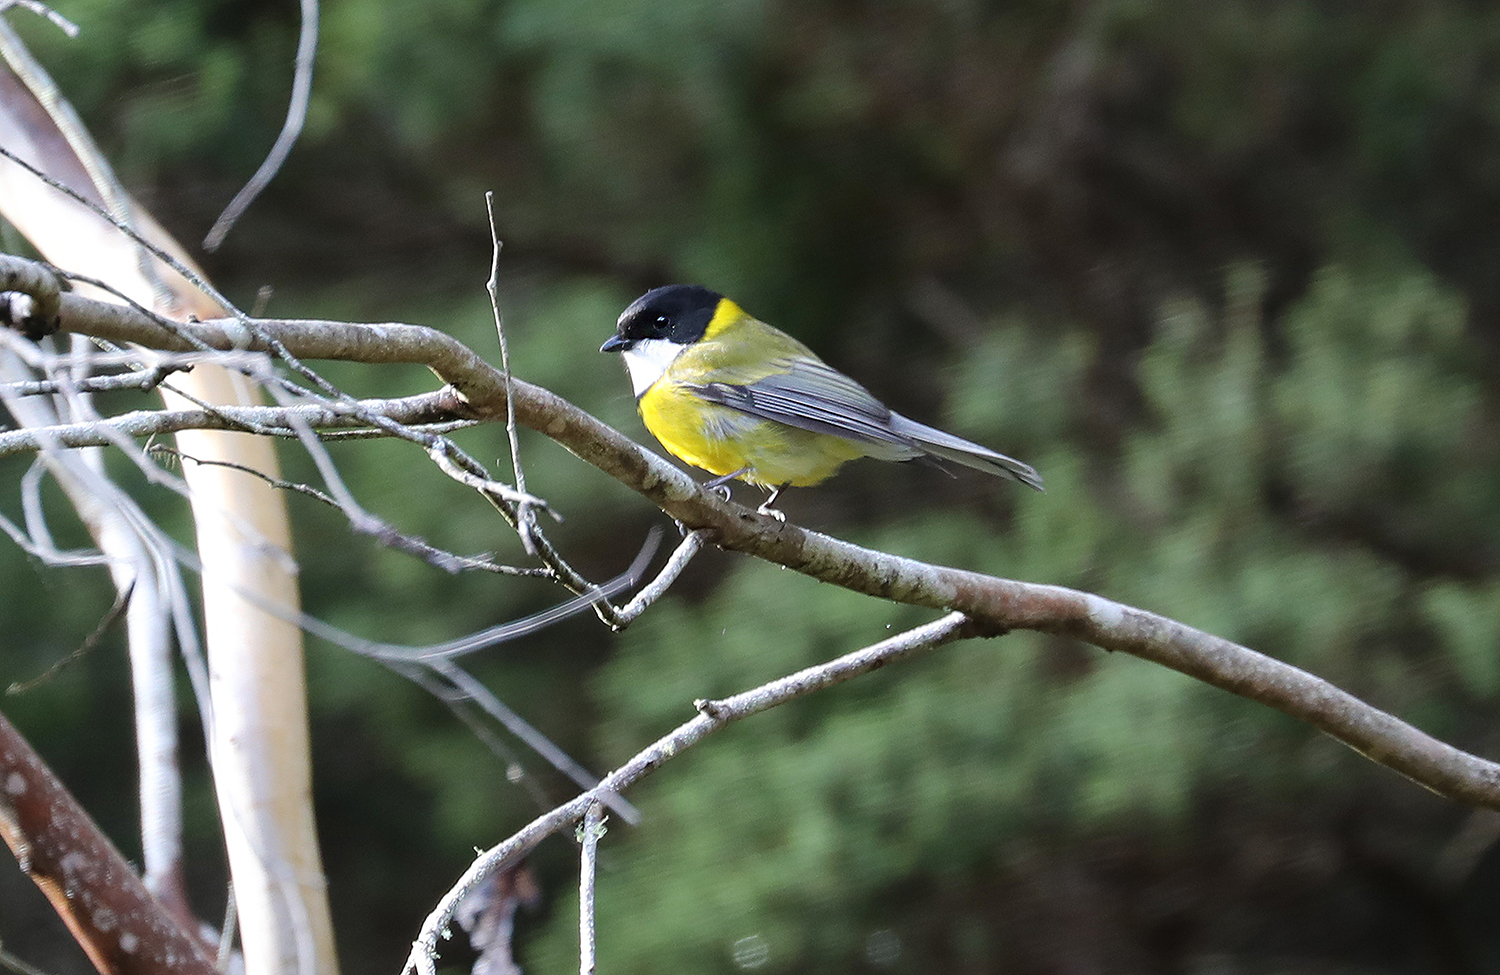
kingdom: Animalia
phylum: Chordata
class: Aves
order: Passeriformes
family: Pachycephalidae
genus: Pachycephala
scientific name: Pachycephala pectoralis
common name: Australian golden whistler
